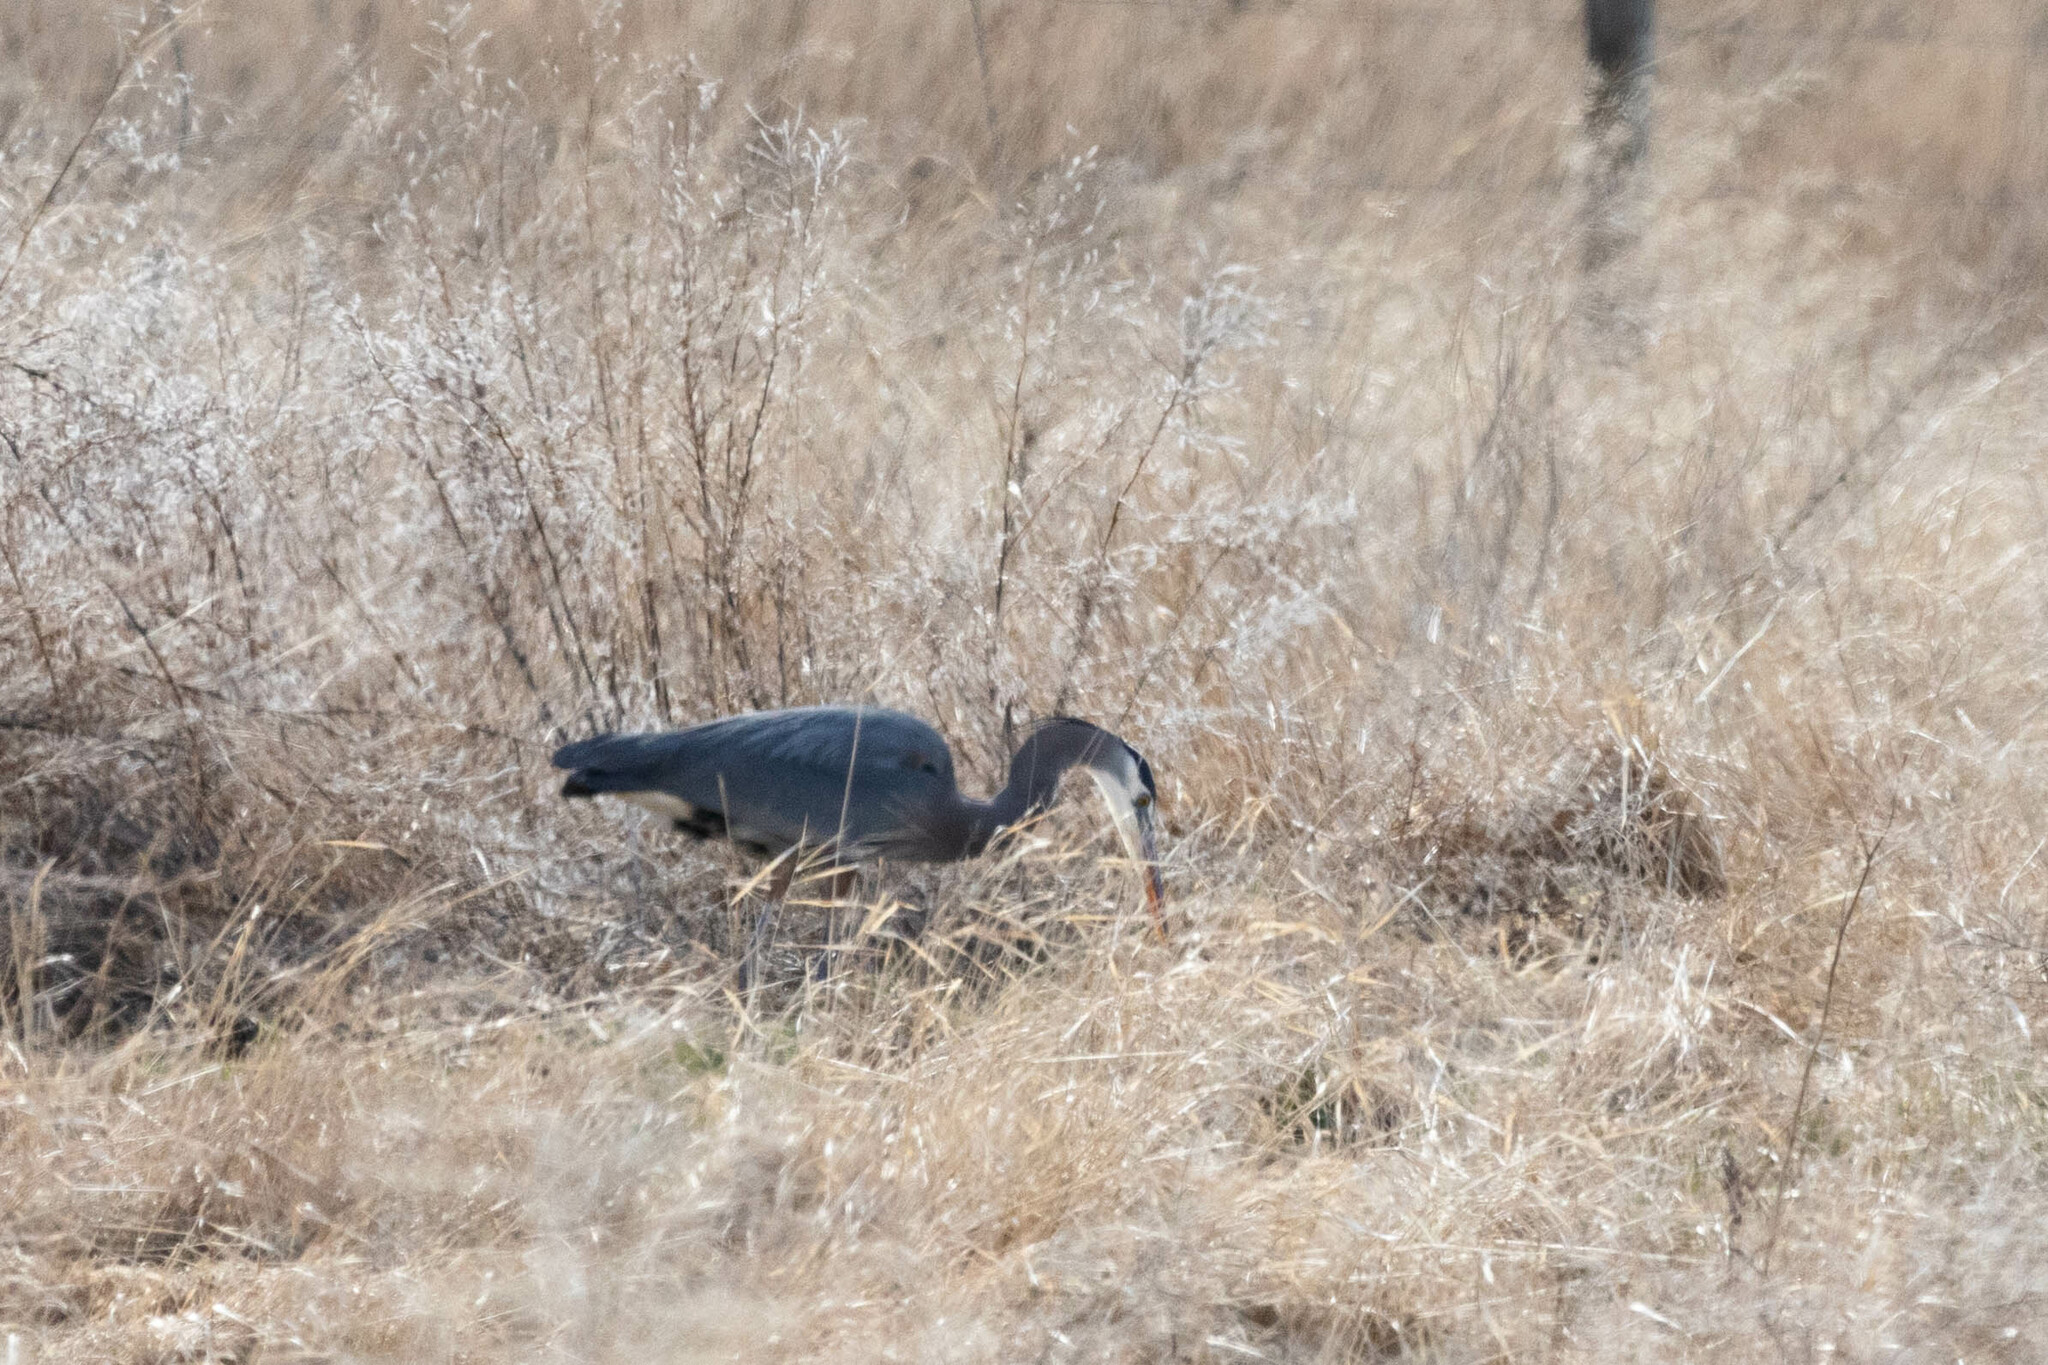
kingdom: Animalia
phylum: Chordata
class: Aves
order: Pelecaniformes
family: Ardeidae
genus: Ardea
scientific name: Ardea herodias
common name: Great blue heron
